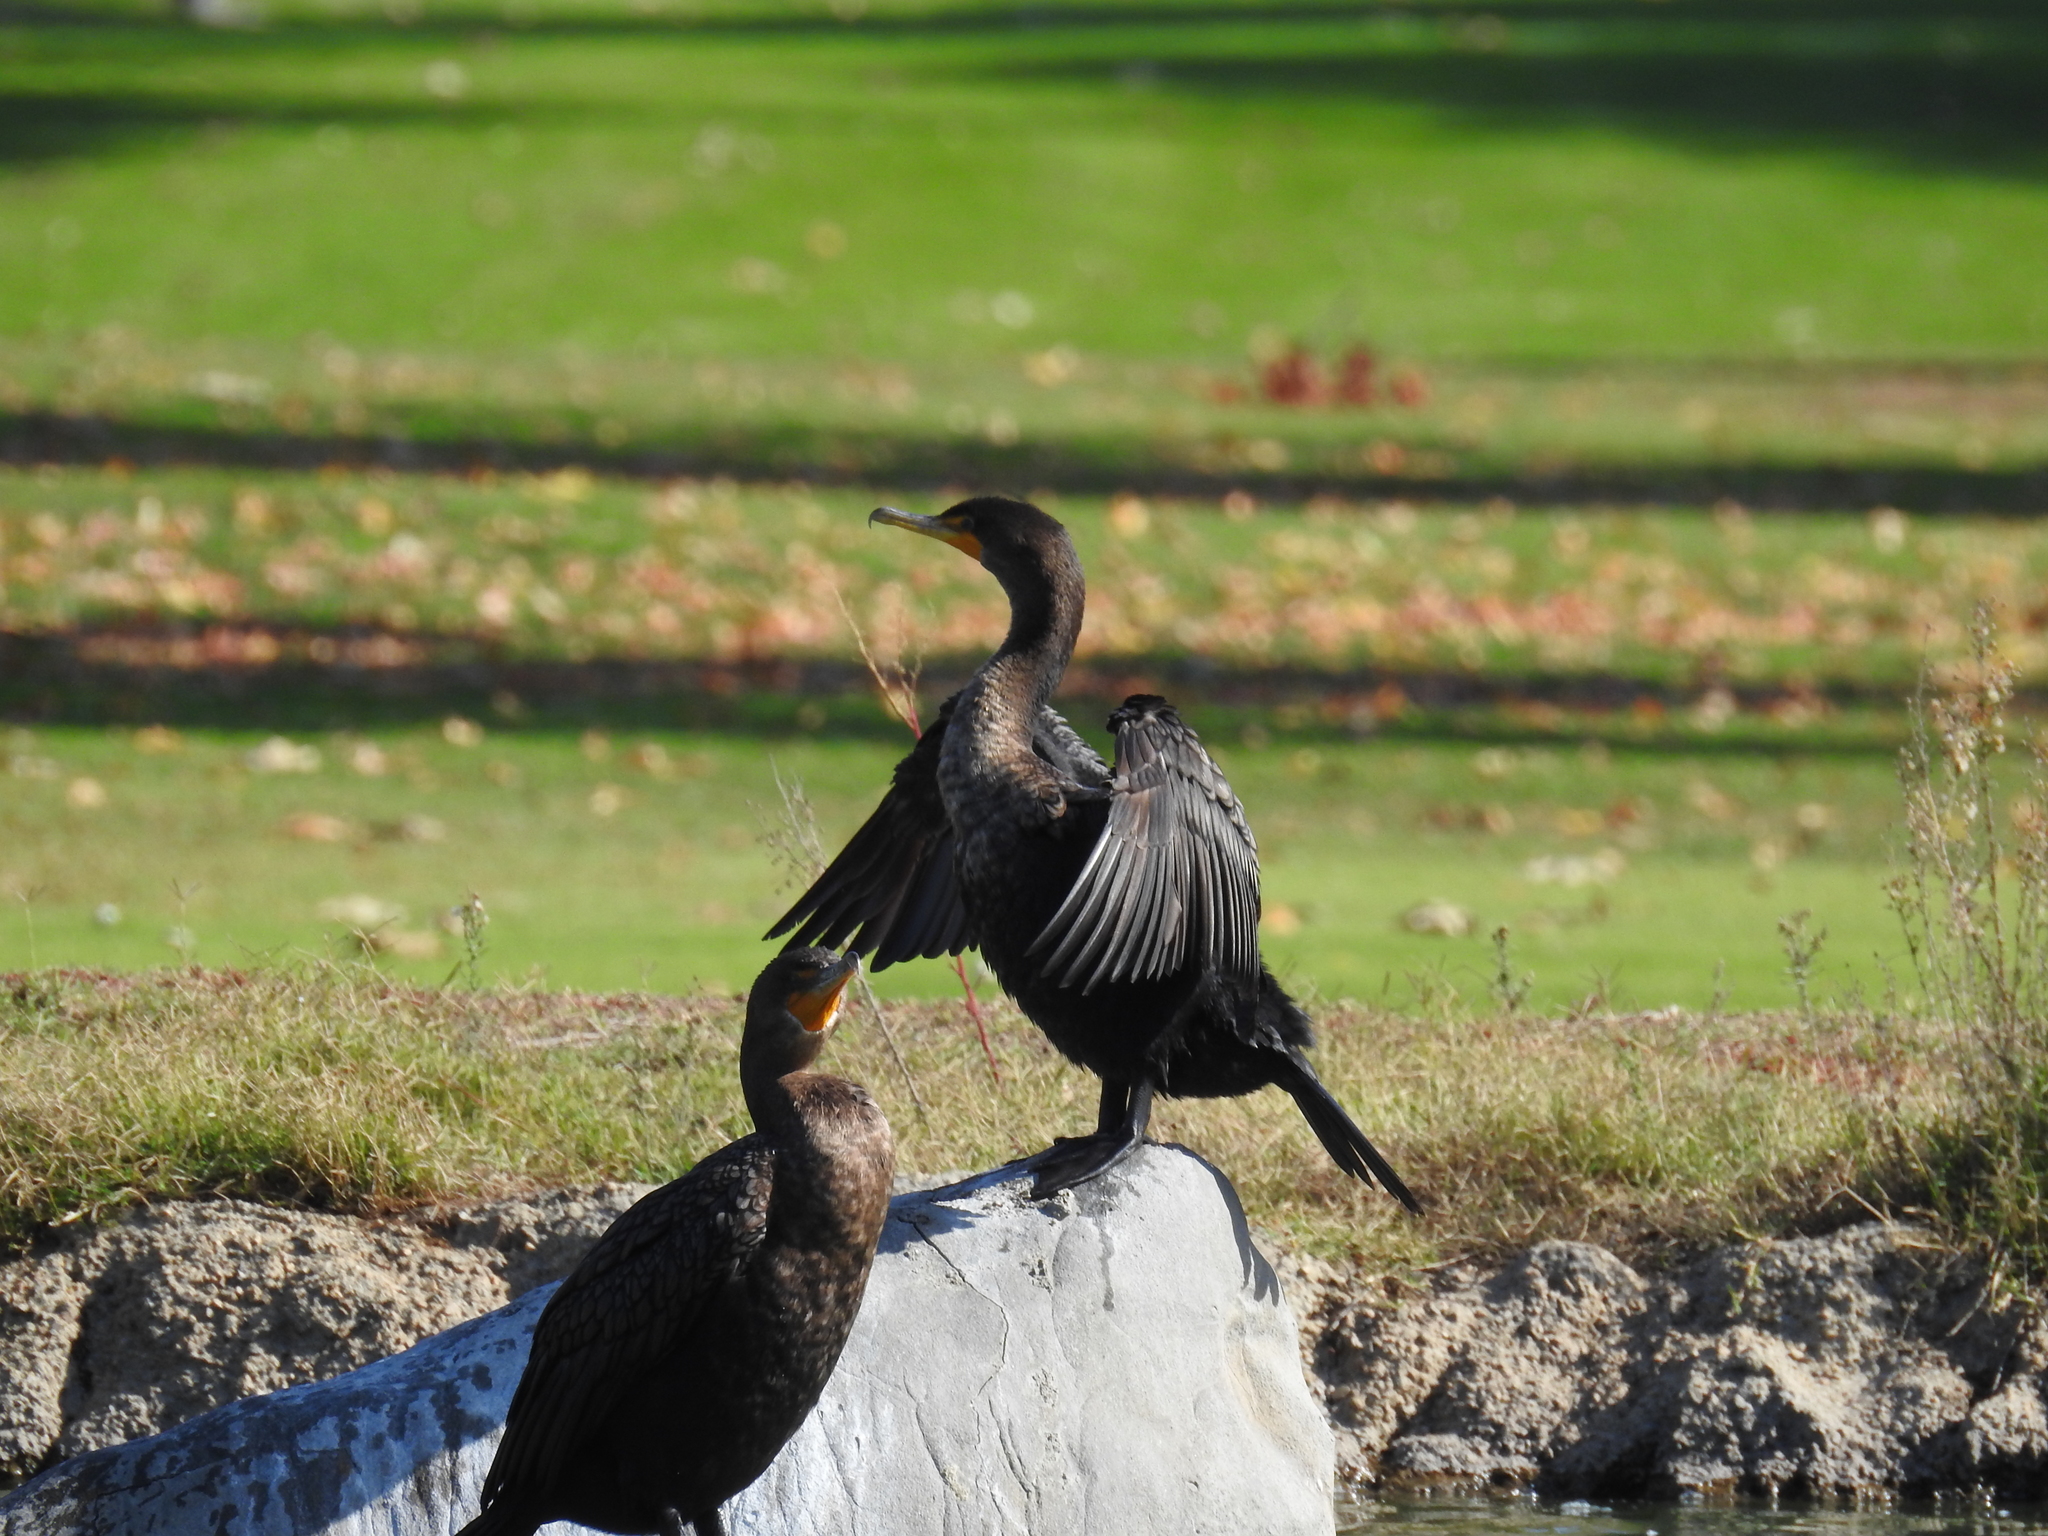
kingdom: Animalia
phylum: Chordata
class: Aves
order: Suliformes
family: Phalacrocoracidae
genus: Phalacrocorax
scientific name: Phalacrocorax auritus
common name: Double-crested cormorant
